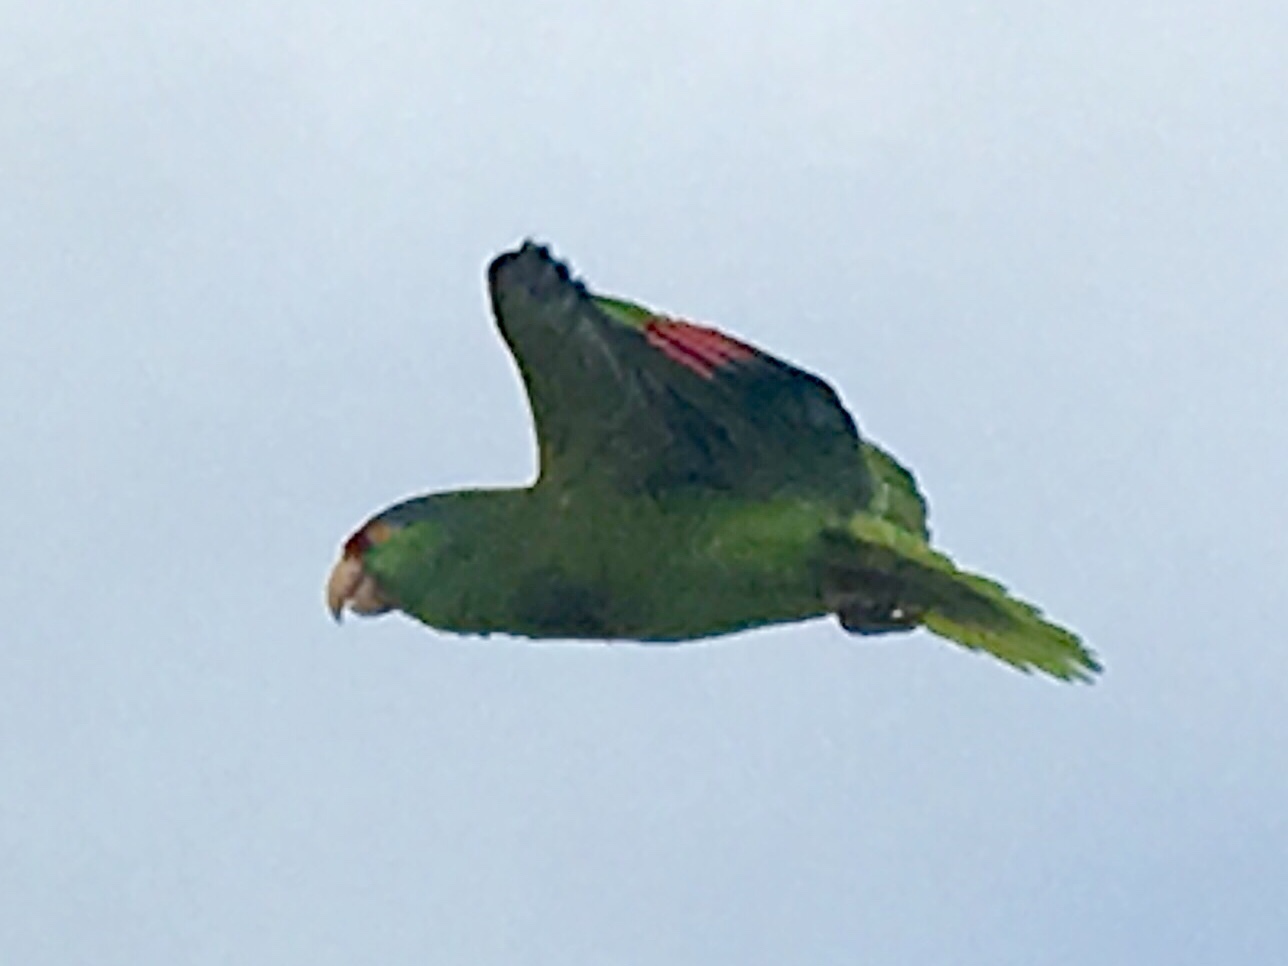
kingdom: Animalia
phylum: Chordata
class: Aves
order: Psittaciformes
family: Psittacidae
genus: Amazona
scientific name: Amazona viridigenalis
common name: Red-crowned amazon
